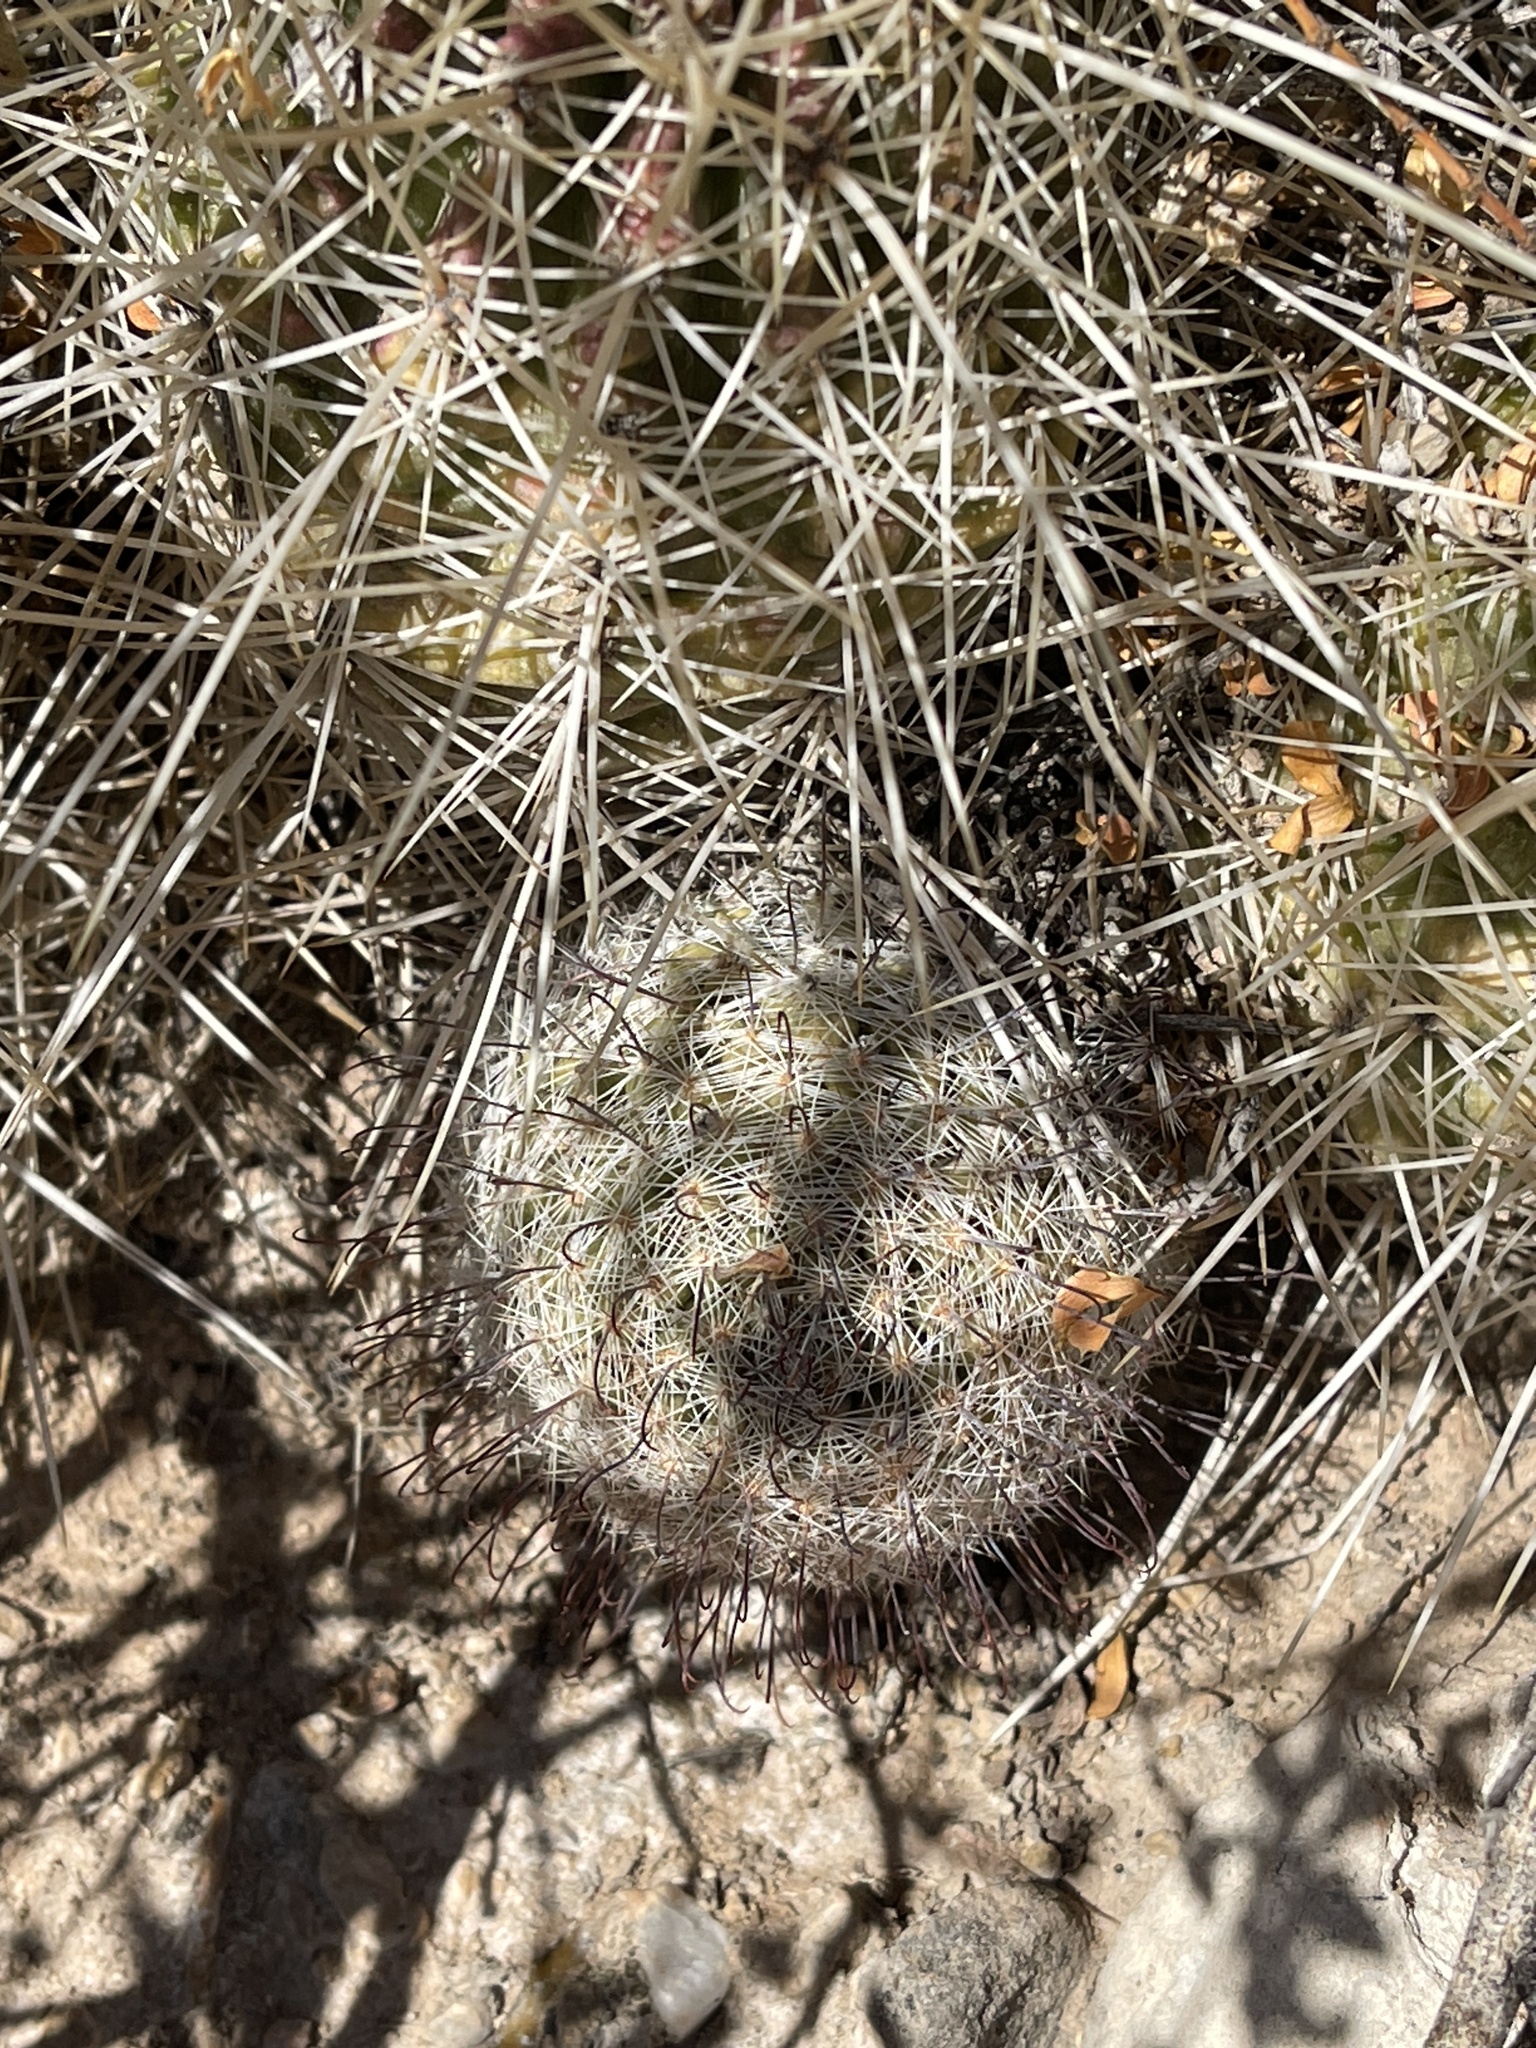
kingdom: Plantae
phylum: Tracheophyta
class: Magnoliopsida
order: Caryophyllales
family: Cactaceae
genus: Cochemiea
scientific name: Cochemiea grahamii
